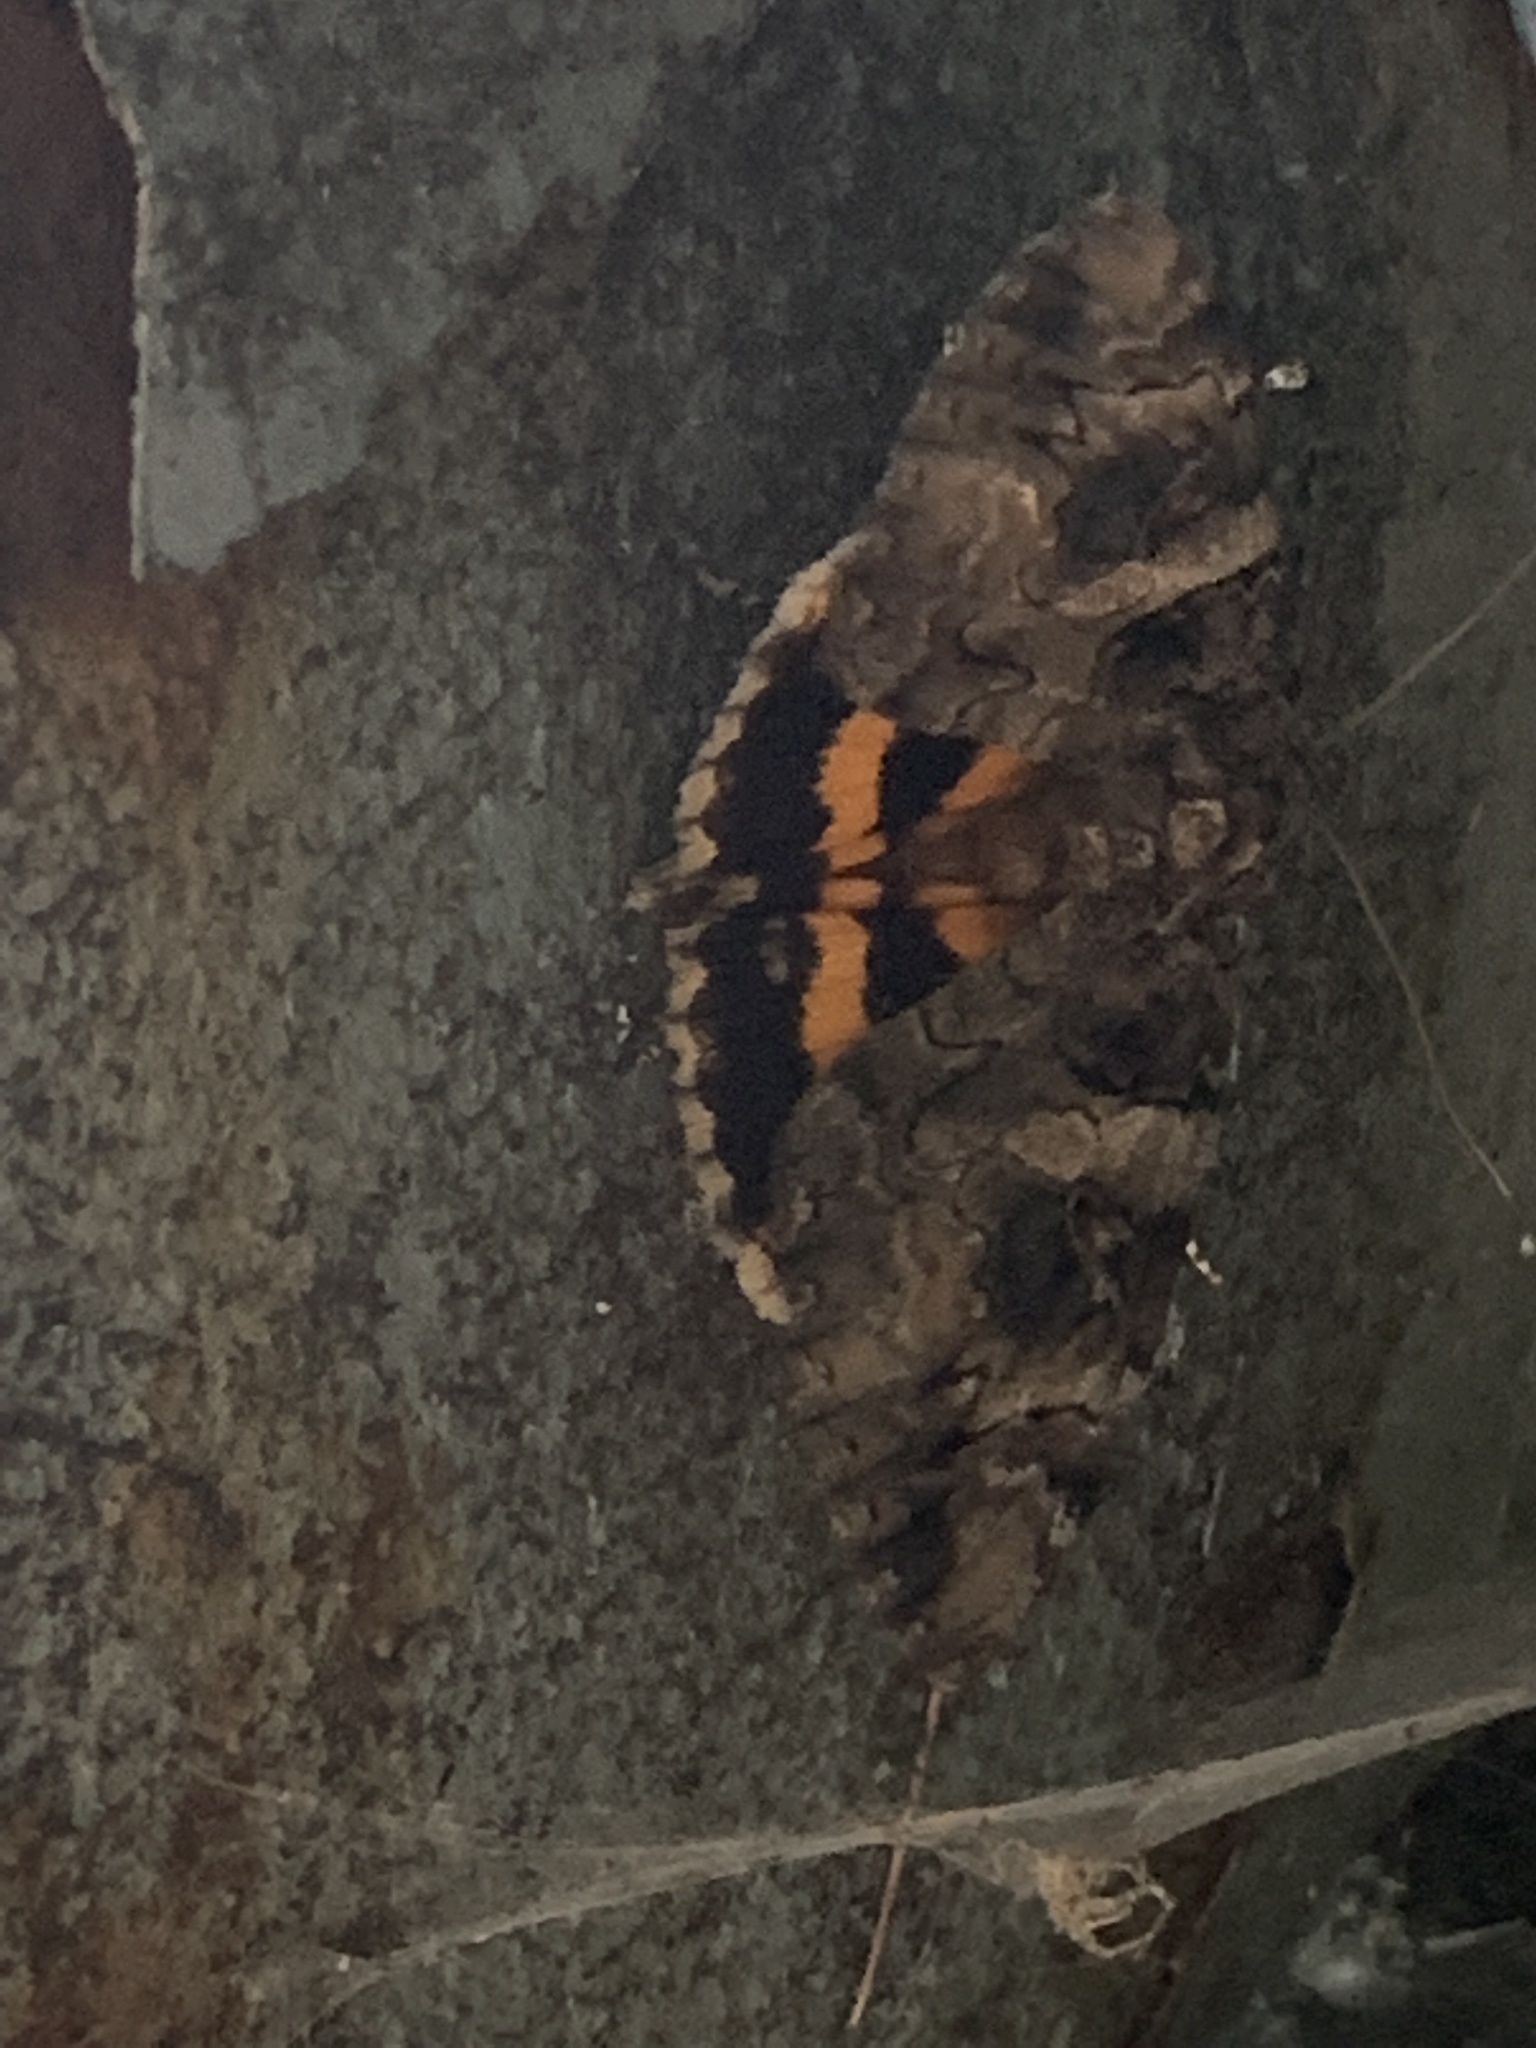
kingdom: Animalia
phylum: Arthropoda
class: Insecta
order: Lepidoptera
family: Erebidae
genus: Catocala
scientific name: Catocala piatrix
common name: The penitent underwing
